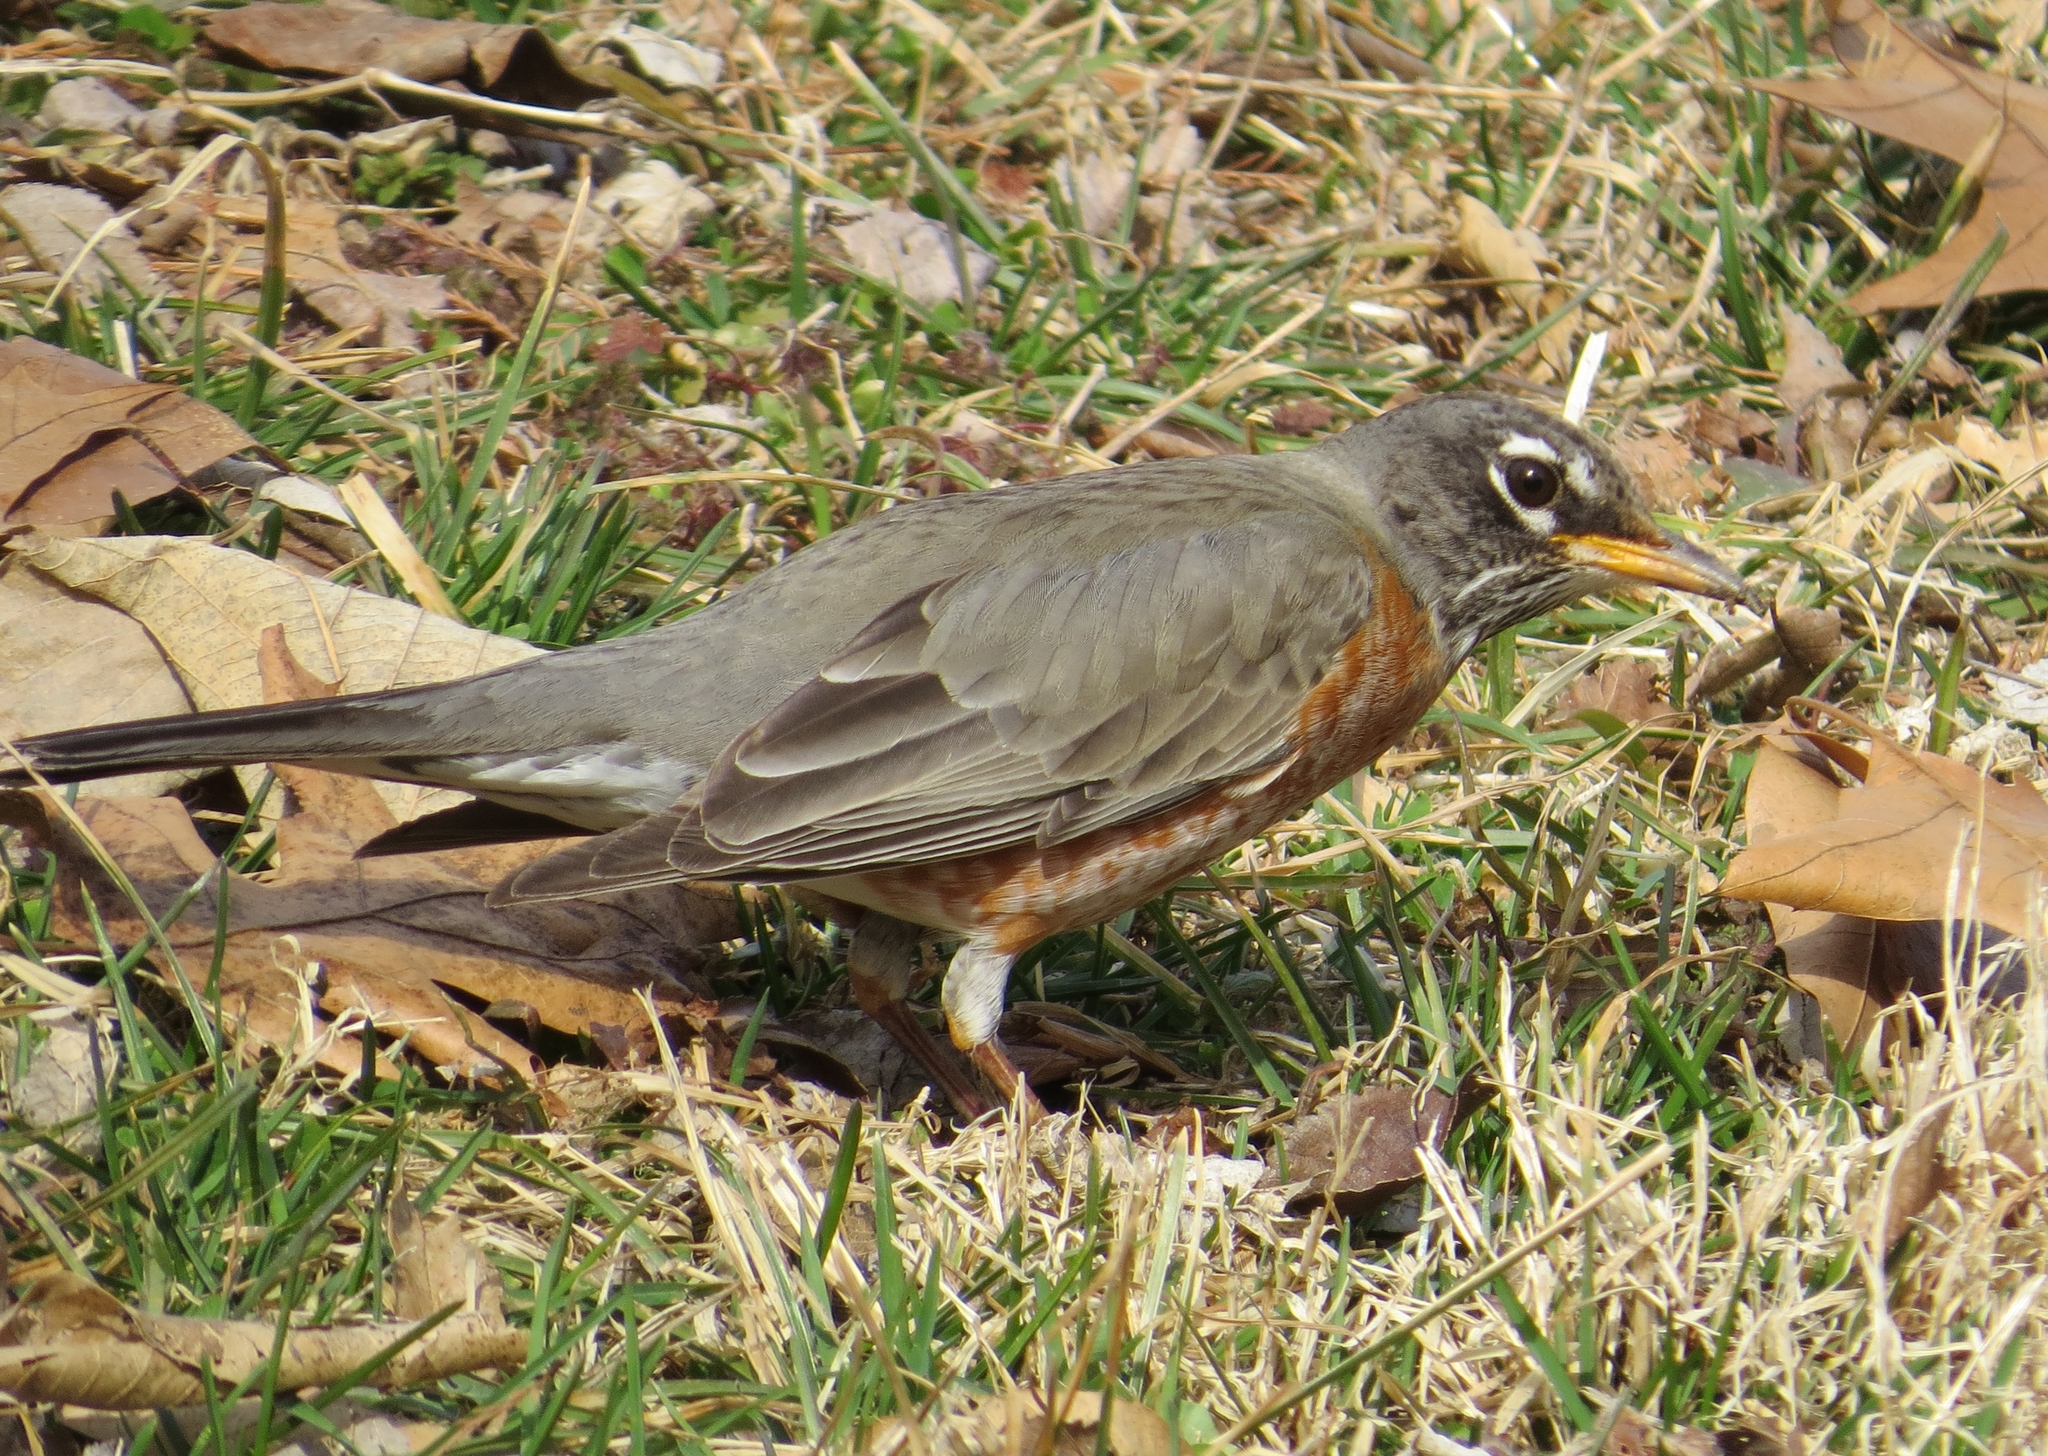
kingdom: Animalia
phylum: Chordata
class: Aves
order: Passeriformes
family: Turdidae
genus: Turdus
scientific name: Turdus migratorius
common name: American robin
